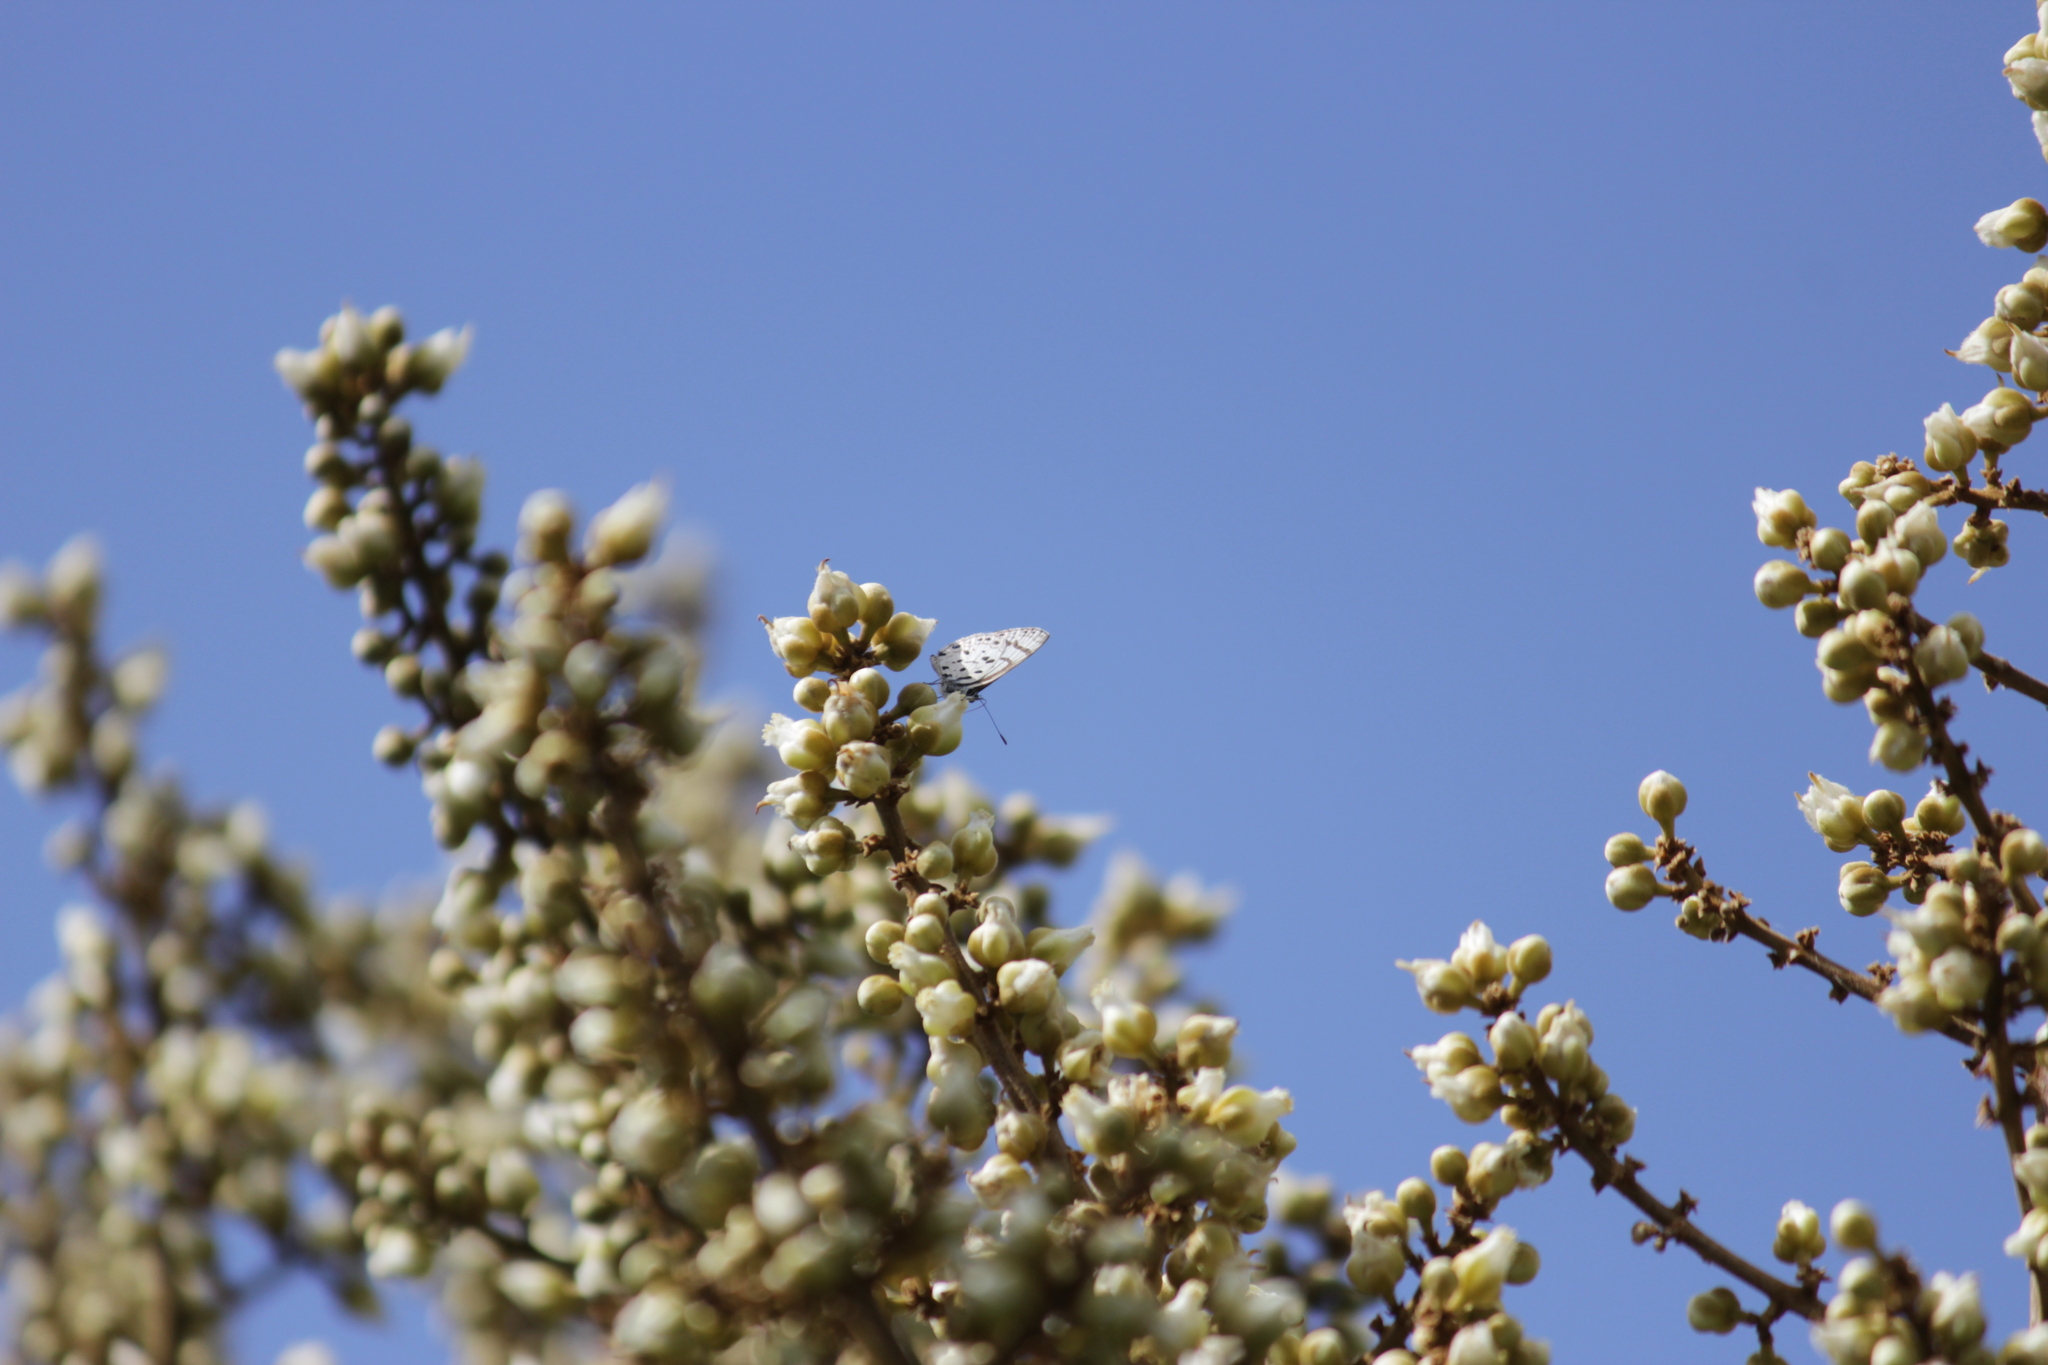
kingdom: Animalia
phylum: Arthropoda
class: Insecta
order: Lepidoptera
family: Lycaenidae
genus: Azanus
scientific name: Azanus natalensis
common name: Natal babul blue
